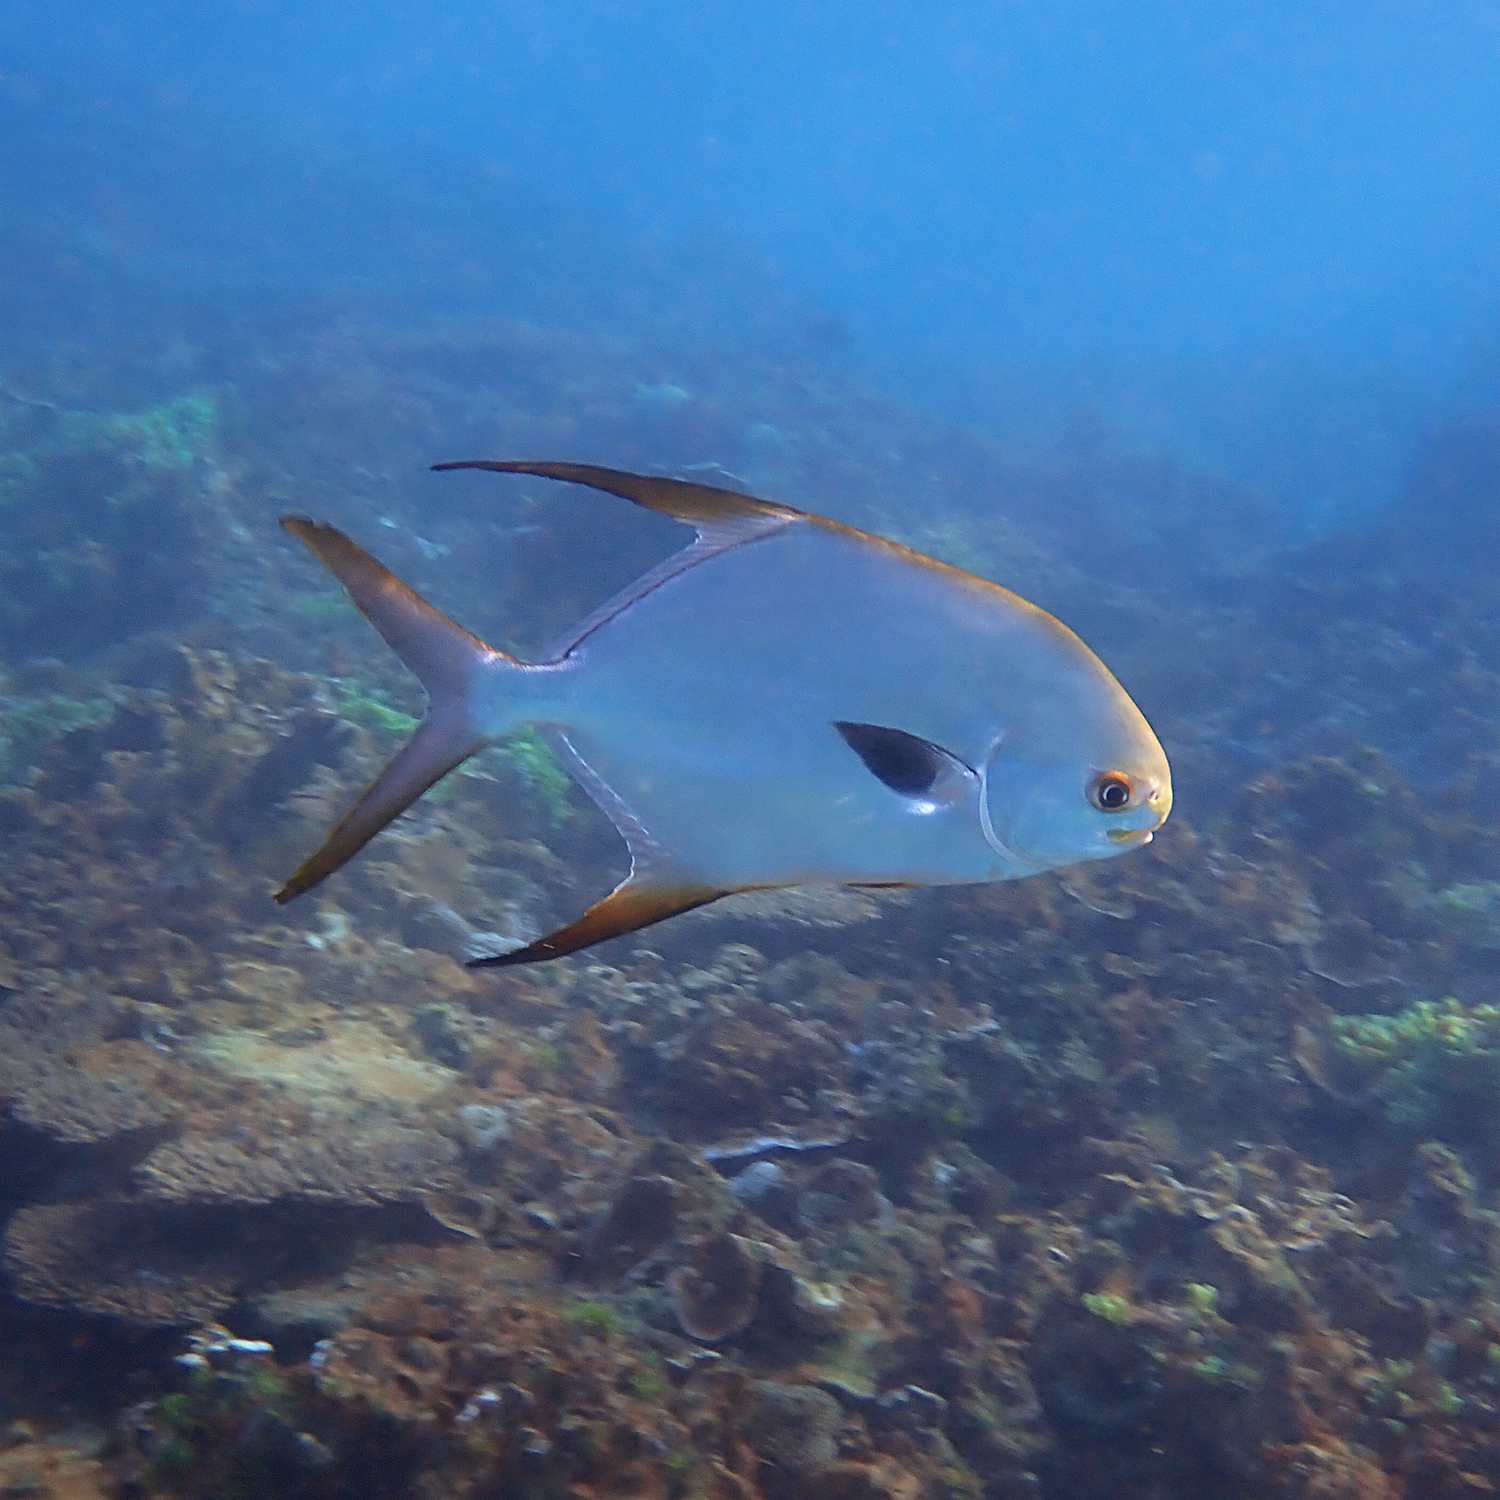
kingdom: Animalia
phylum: Chordata
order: Perciformes
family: Carangidae
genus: Trachinotus
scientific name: Trachinotus blochii
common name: Snubnose pompano
